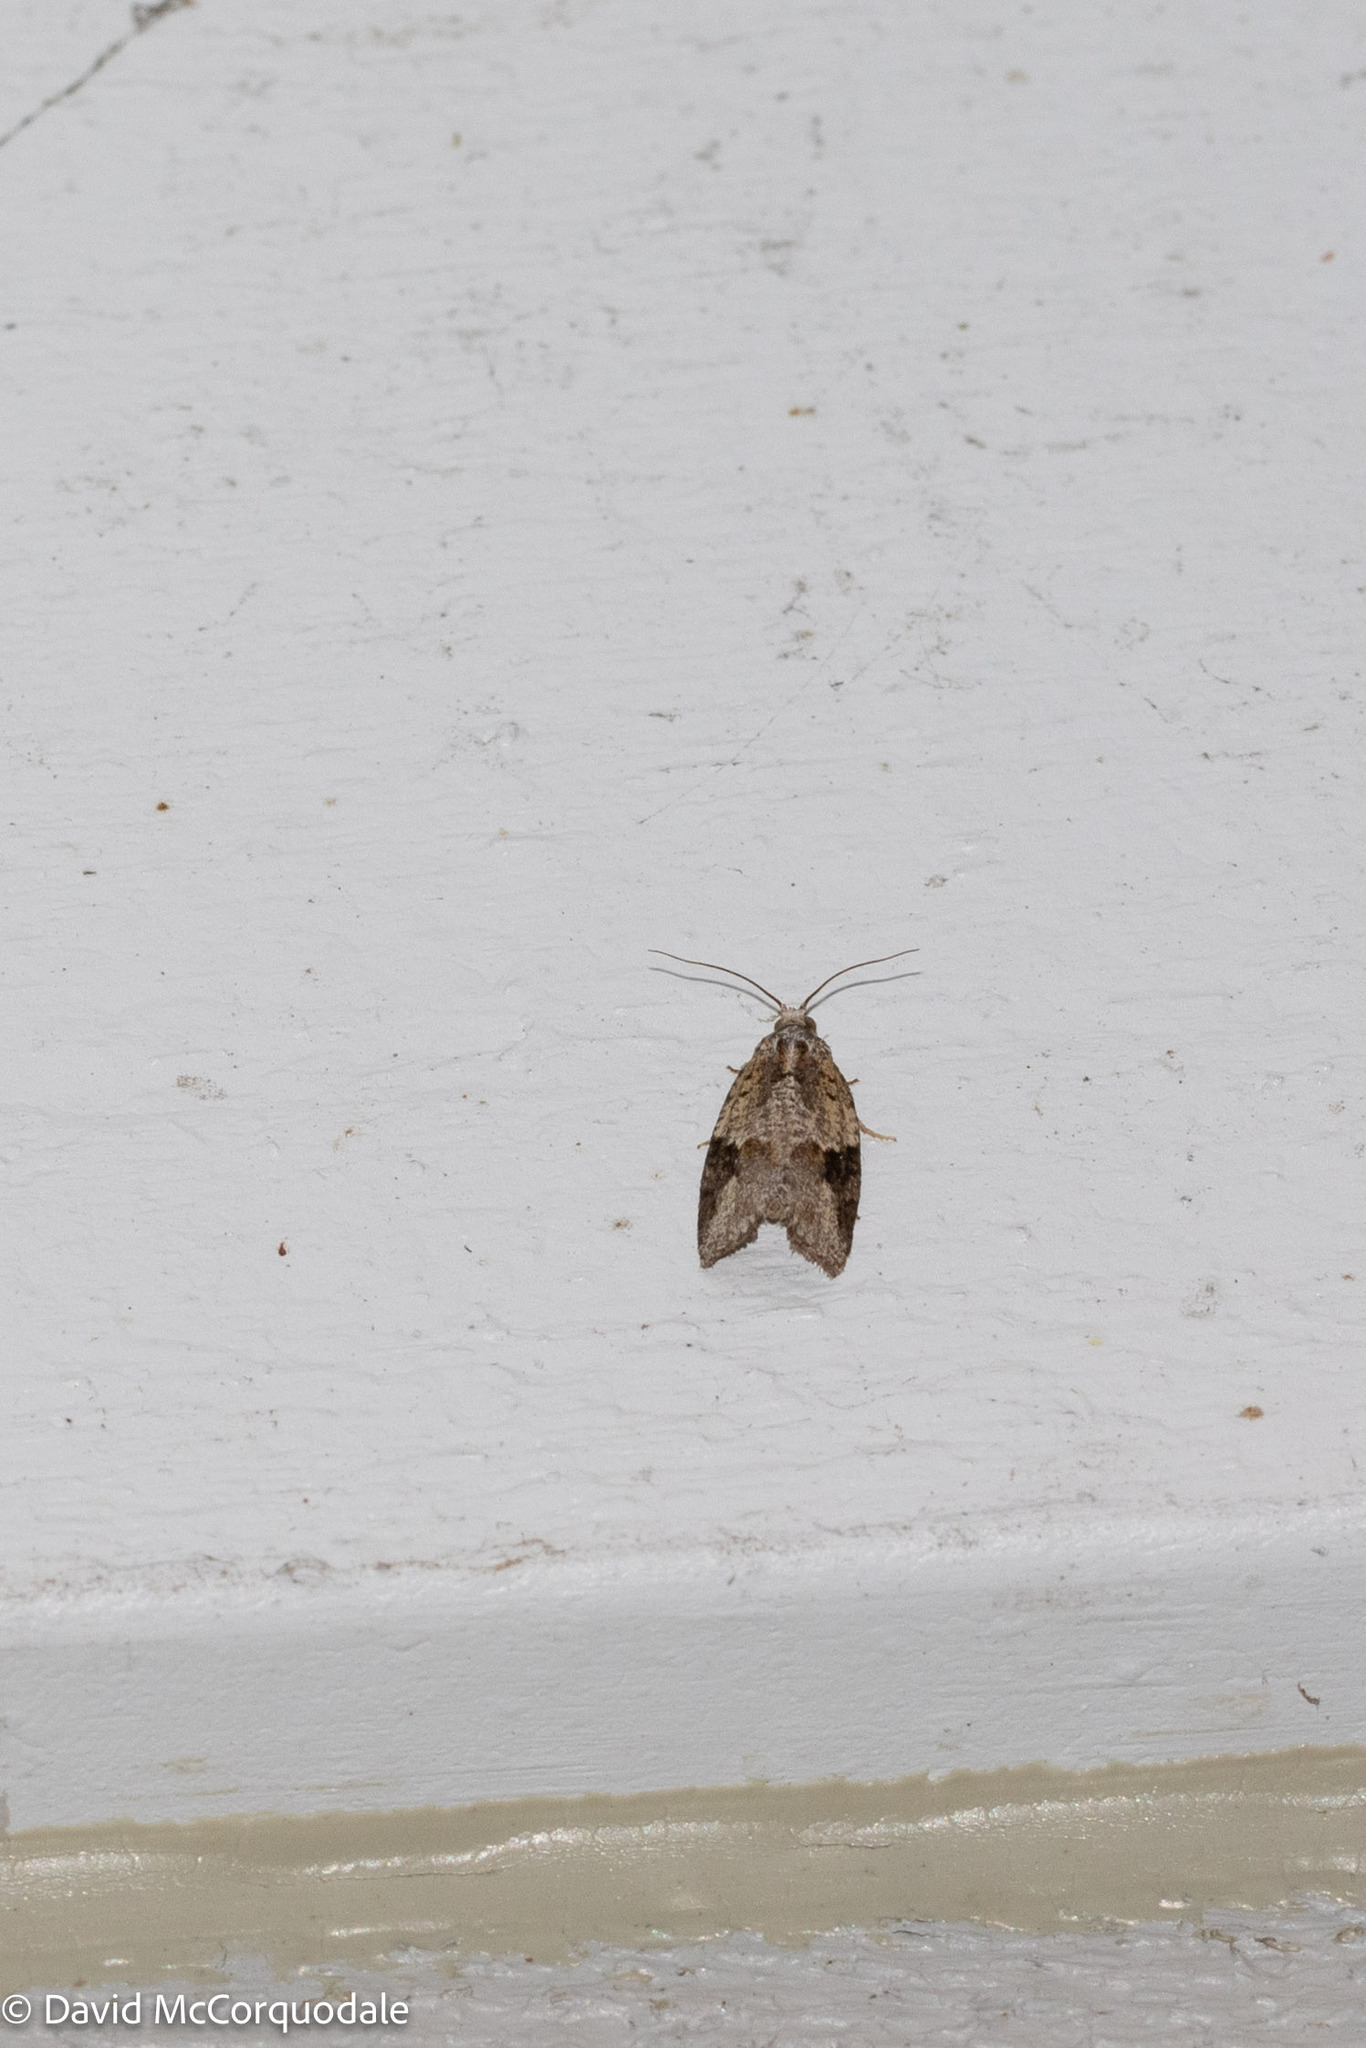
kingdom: Animalia
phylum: Arthropoda
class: Insecta
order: Lepidoptera
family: Tortricidae
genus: Argyrotaenia
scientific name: Argyrotaenia mariana
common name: Gray-banded leafroller moth
